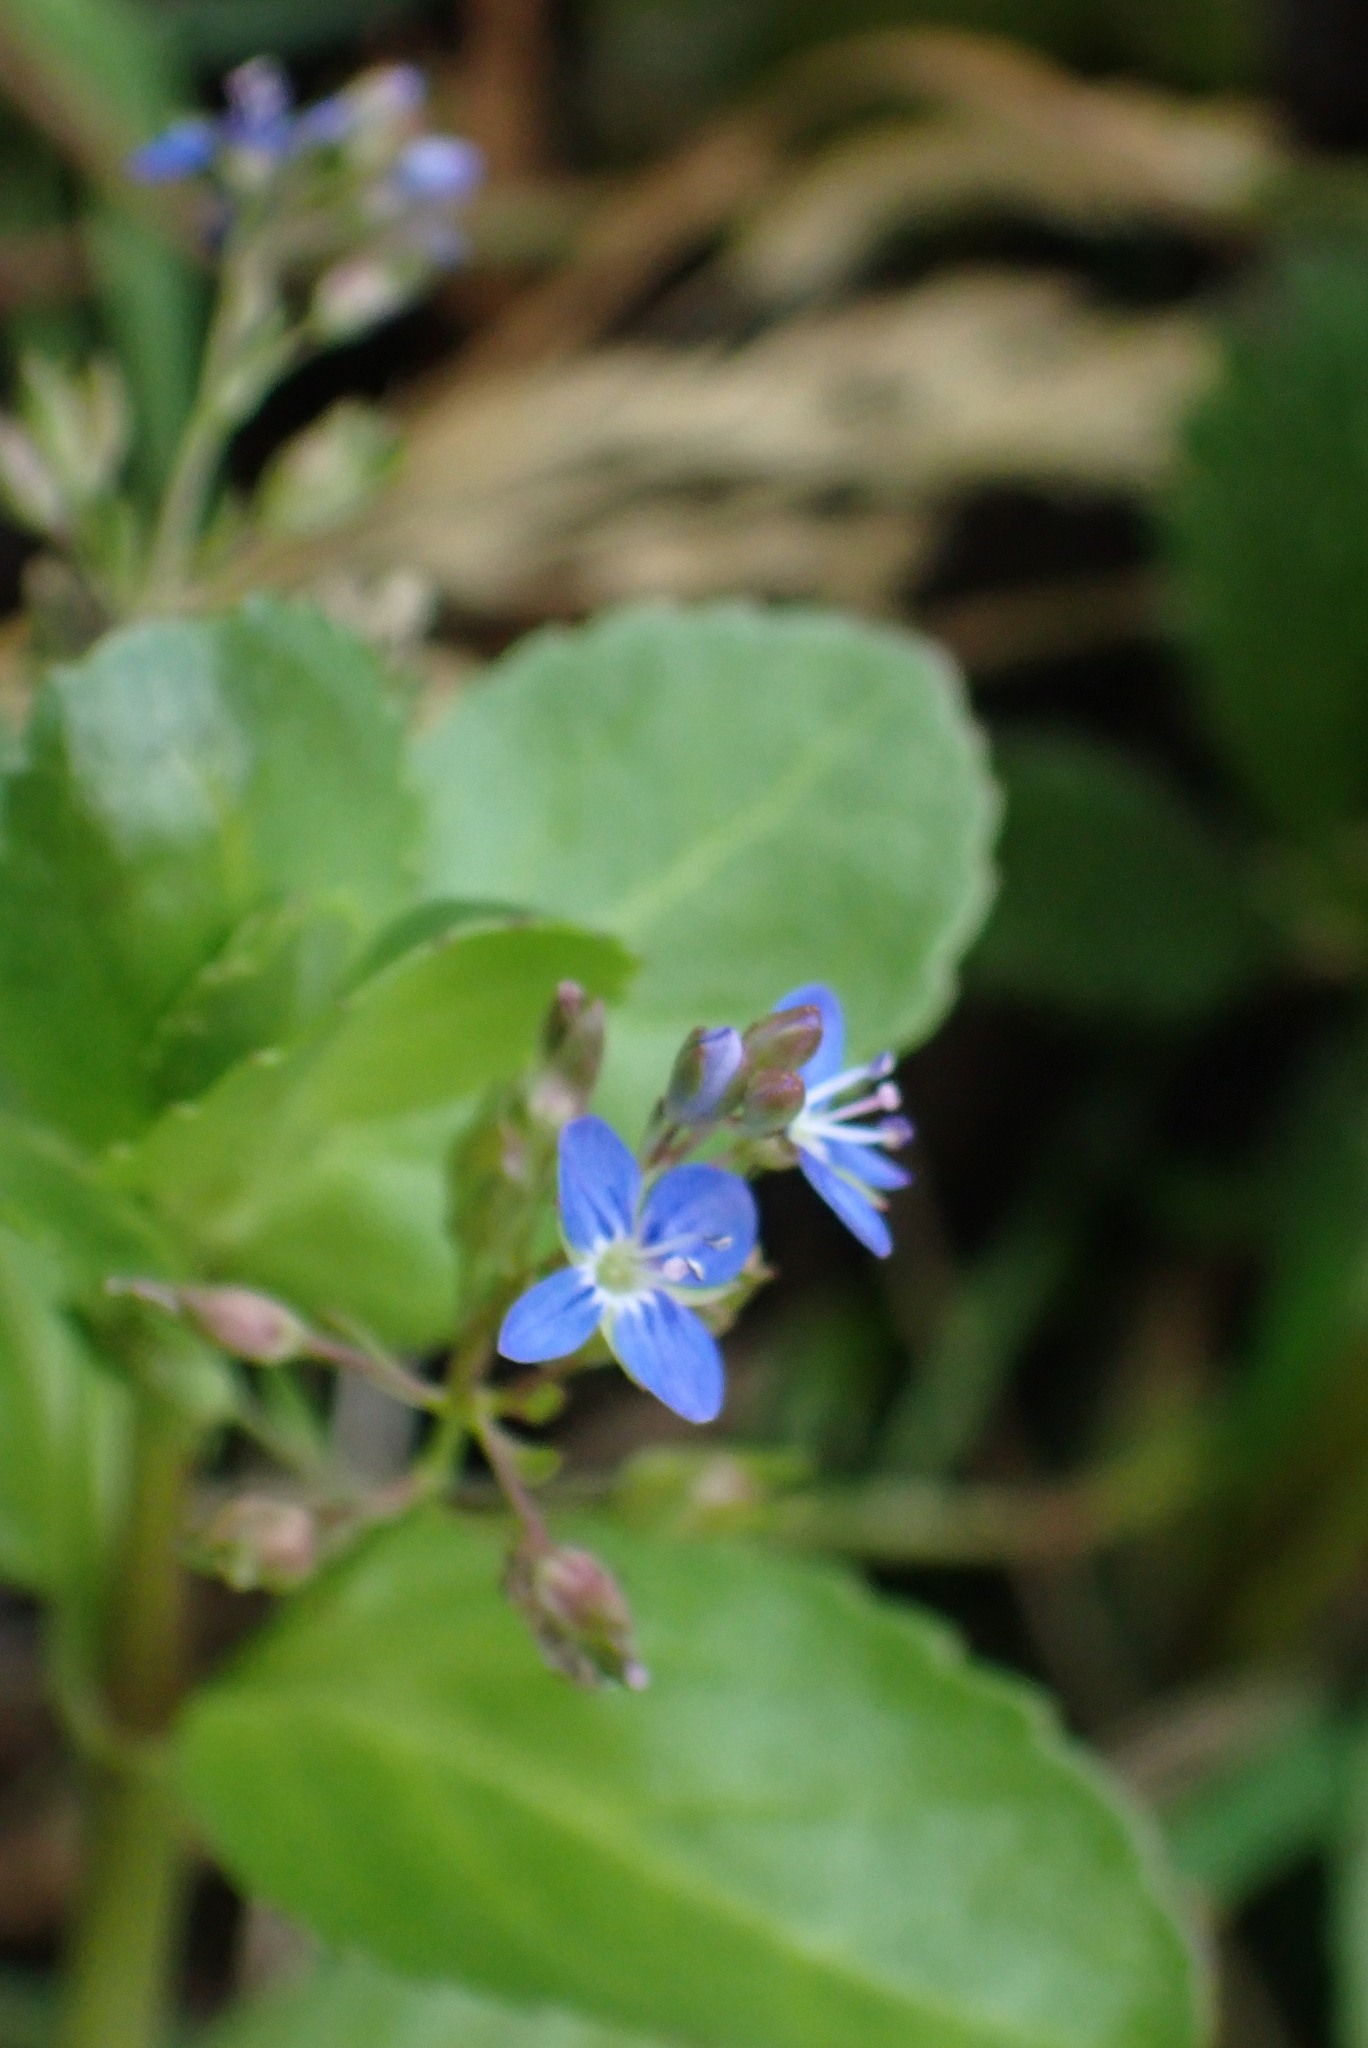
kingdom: Plantae
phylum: Tracheophyta
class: Magnoliopsida
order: Lamiales
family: Plantaginaceae
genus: Veronica
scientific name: Veronica beccabunga
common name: Brooklime
